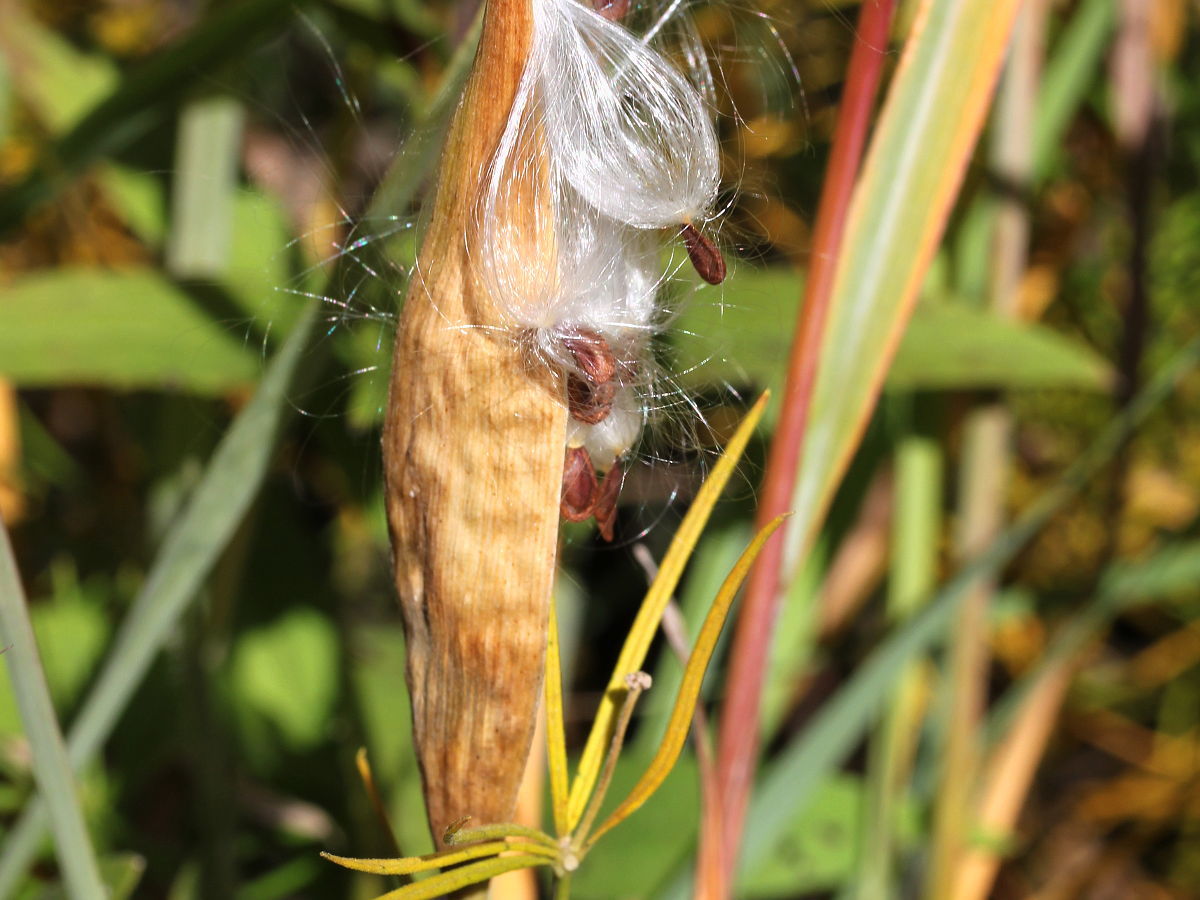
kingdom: Plantae
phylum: Tracheophyta
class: Magnoliopsida
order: Gentianales
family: Apocynaceae
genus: Asclepias
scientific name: Asclepias verticillata
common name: Eastern whorled milkweed
